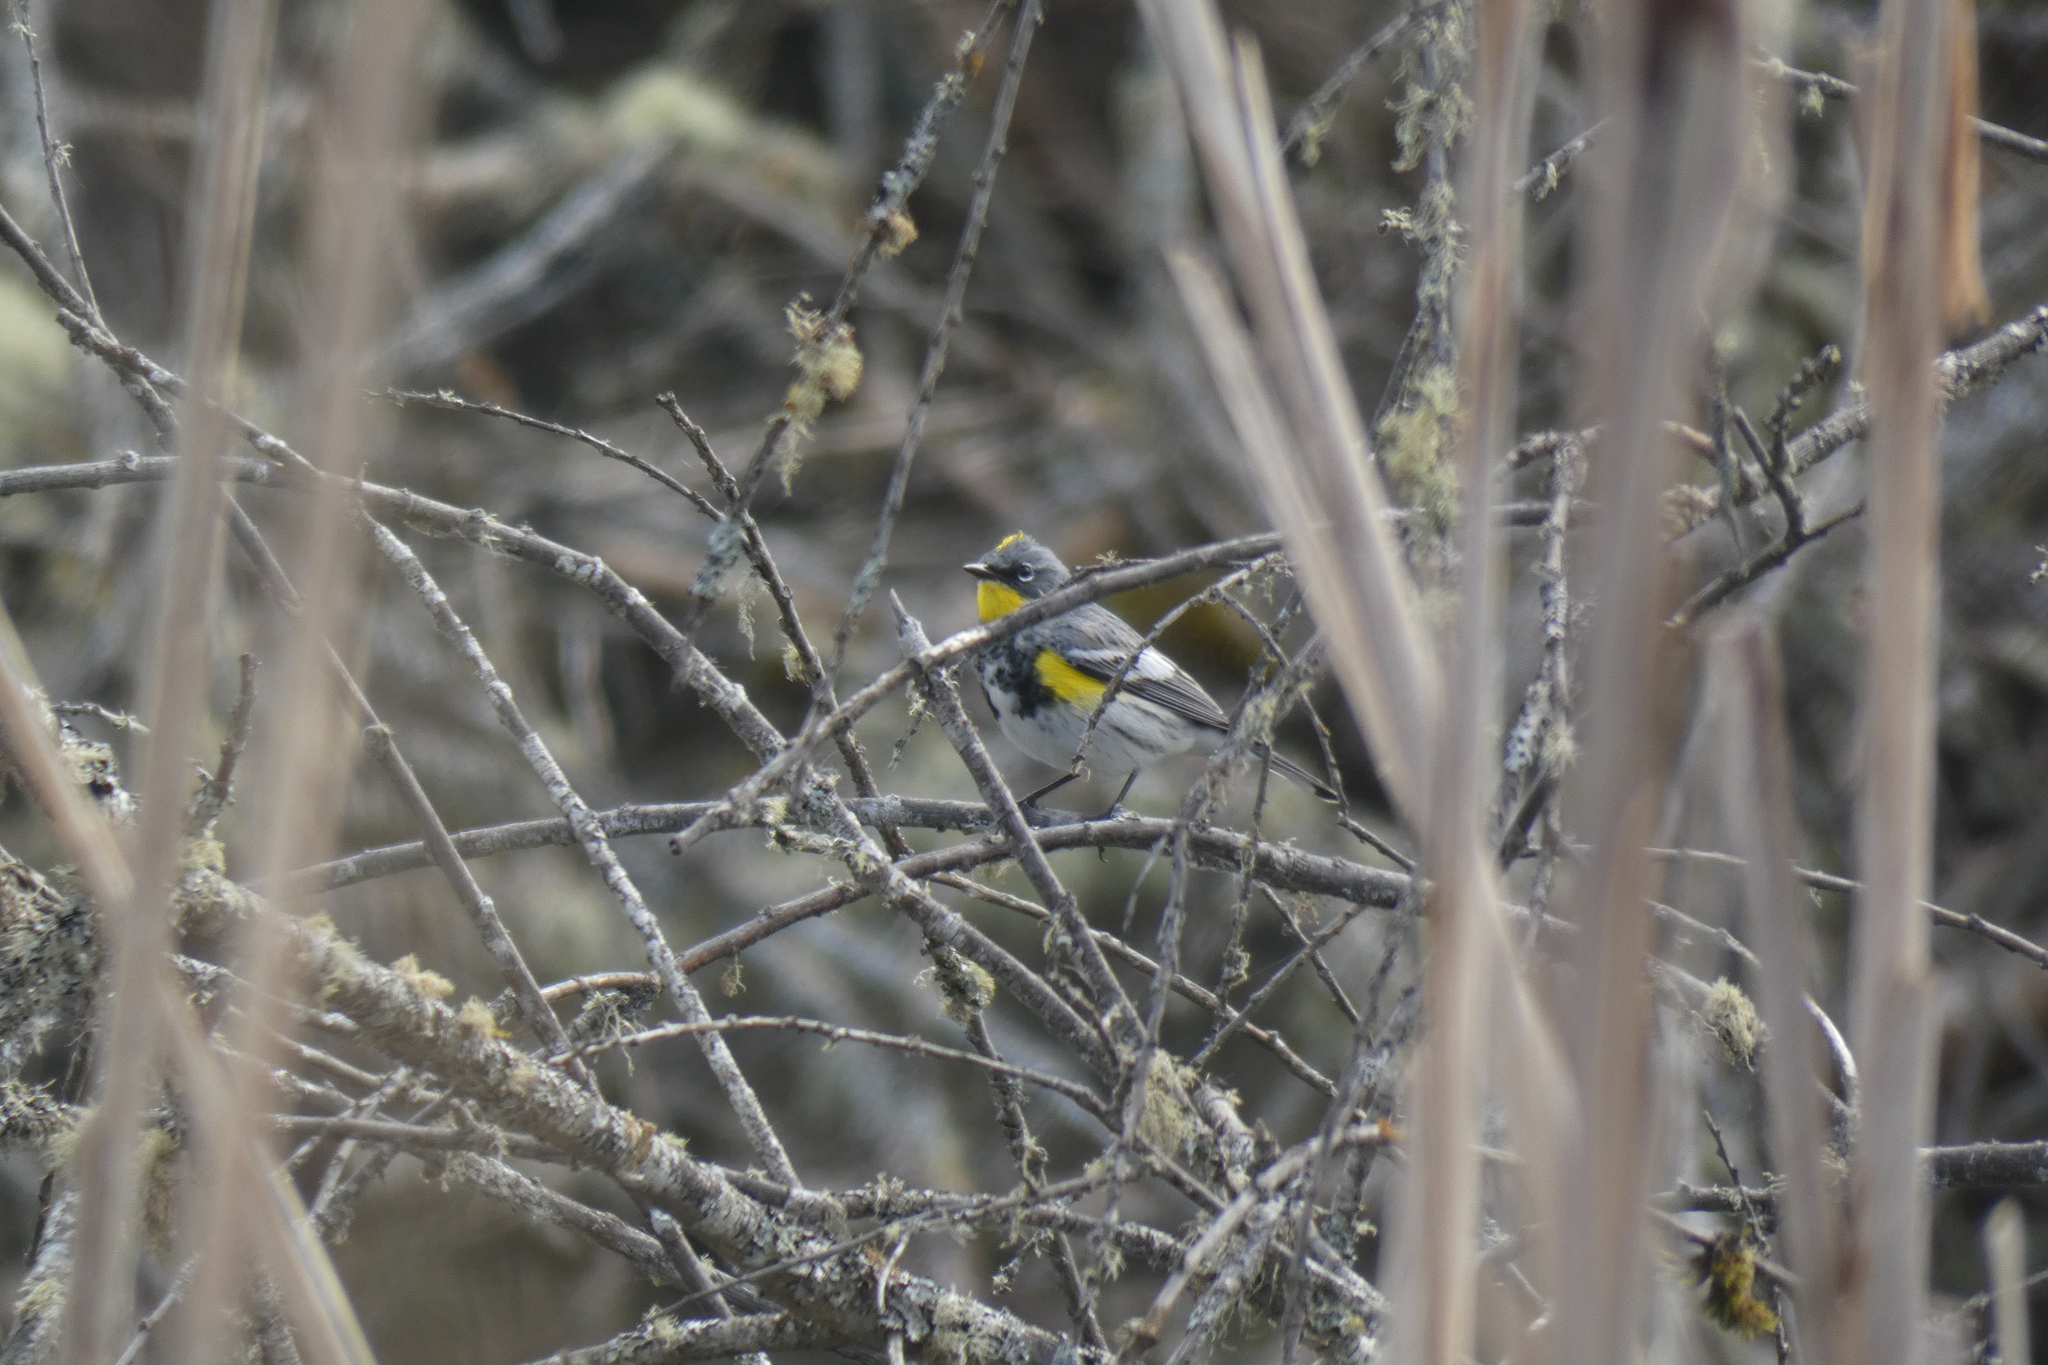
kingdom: Animalia
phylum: Chordata
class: Aves
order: Passeriformes
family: Parulidae
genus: Setophaga
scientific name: Setophaga coronata
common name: Myrtle warbler
